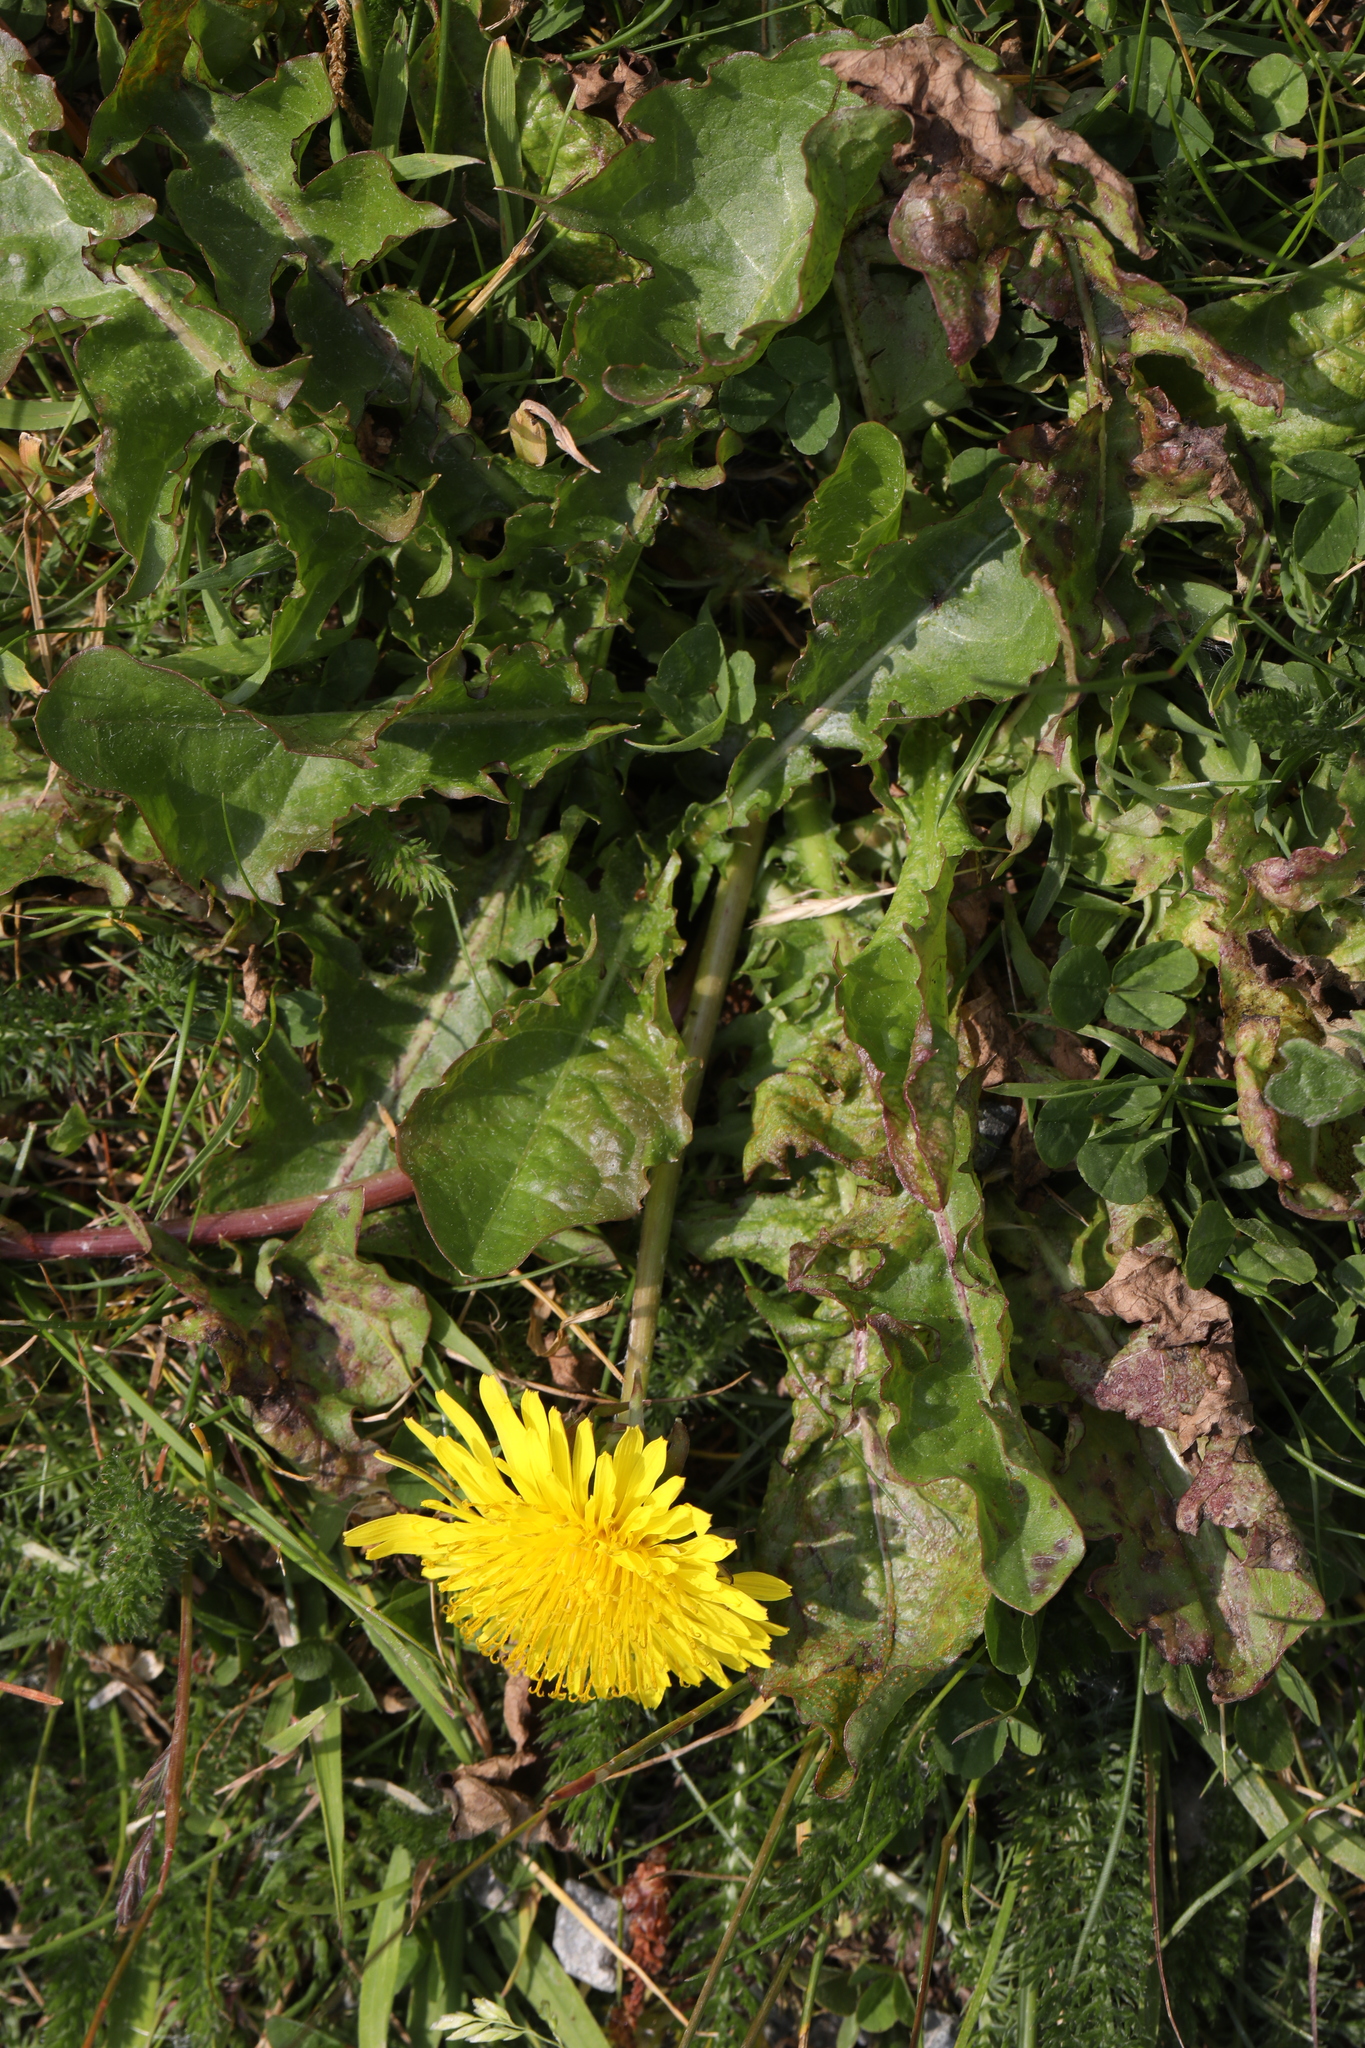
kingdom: Plantae
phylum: Tracheophyta
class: Magnoliopsida
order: Asterales
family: Asteraceae
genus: Taraxacum
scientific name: Taraxacum officinale
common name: Common dandelion
